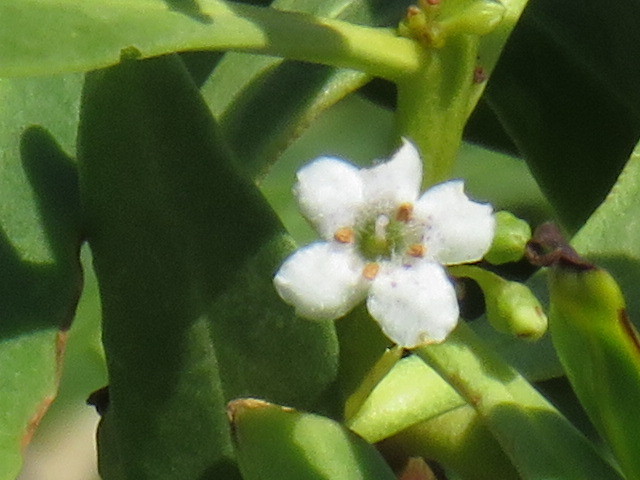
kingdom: Plantae
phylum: Tracheophyta
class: Magnoliopsida
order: Lamiales
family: Scrophulariaceae
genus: Myoporum
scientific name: Myoporum insulare
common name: Common boobialla
